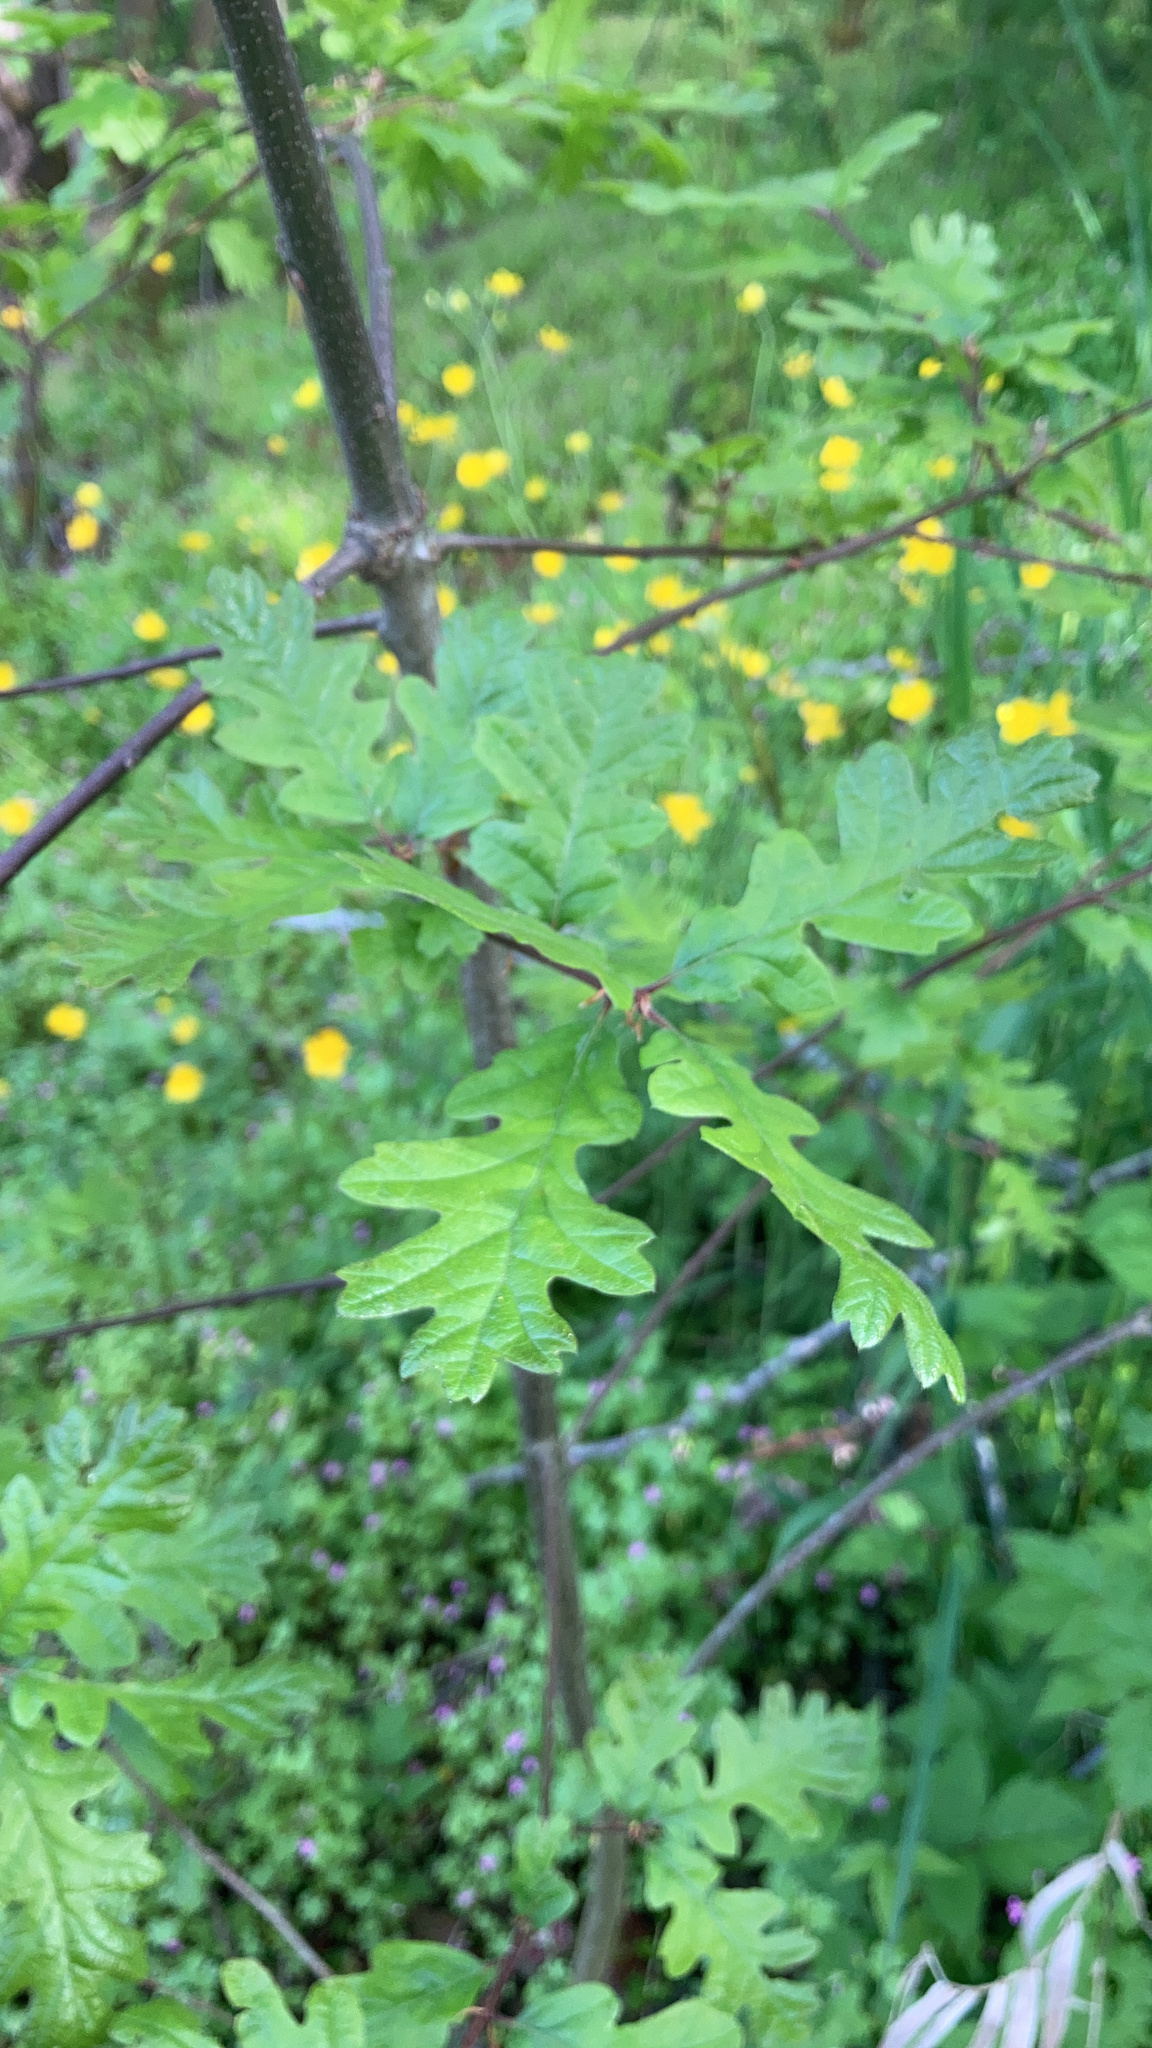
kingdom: Plantae
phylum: Tracheophyta
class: Magnoliopsida
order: Fagales
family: Fagaceae
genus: Quercus
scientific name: Quercus garryana
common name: Garry oak
